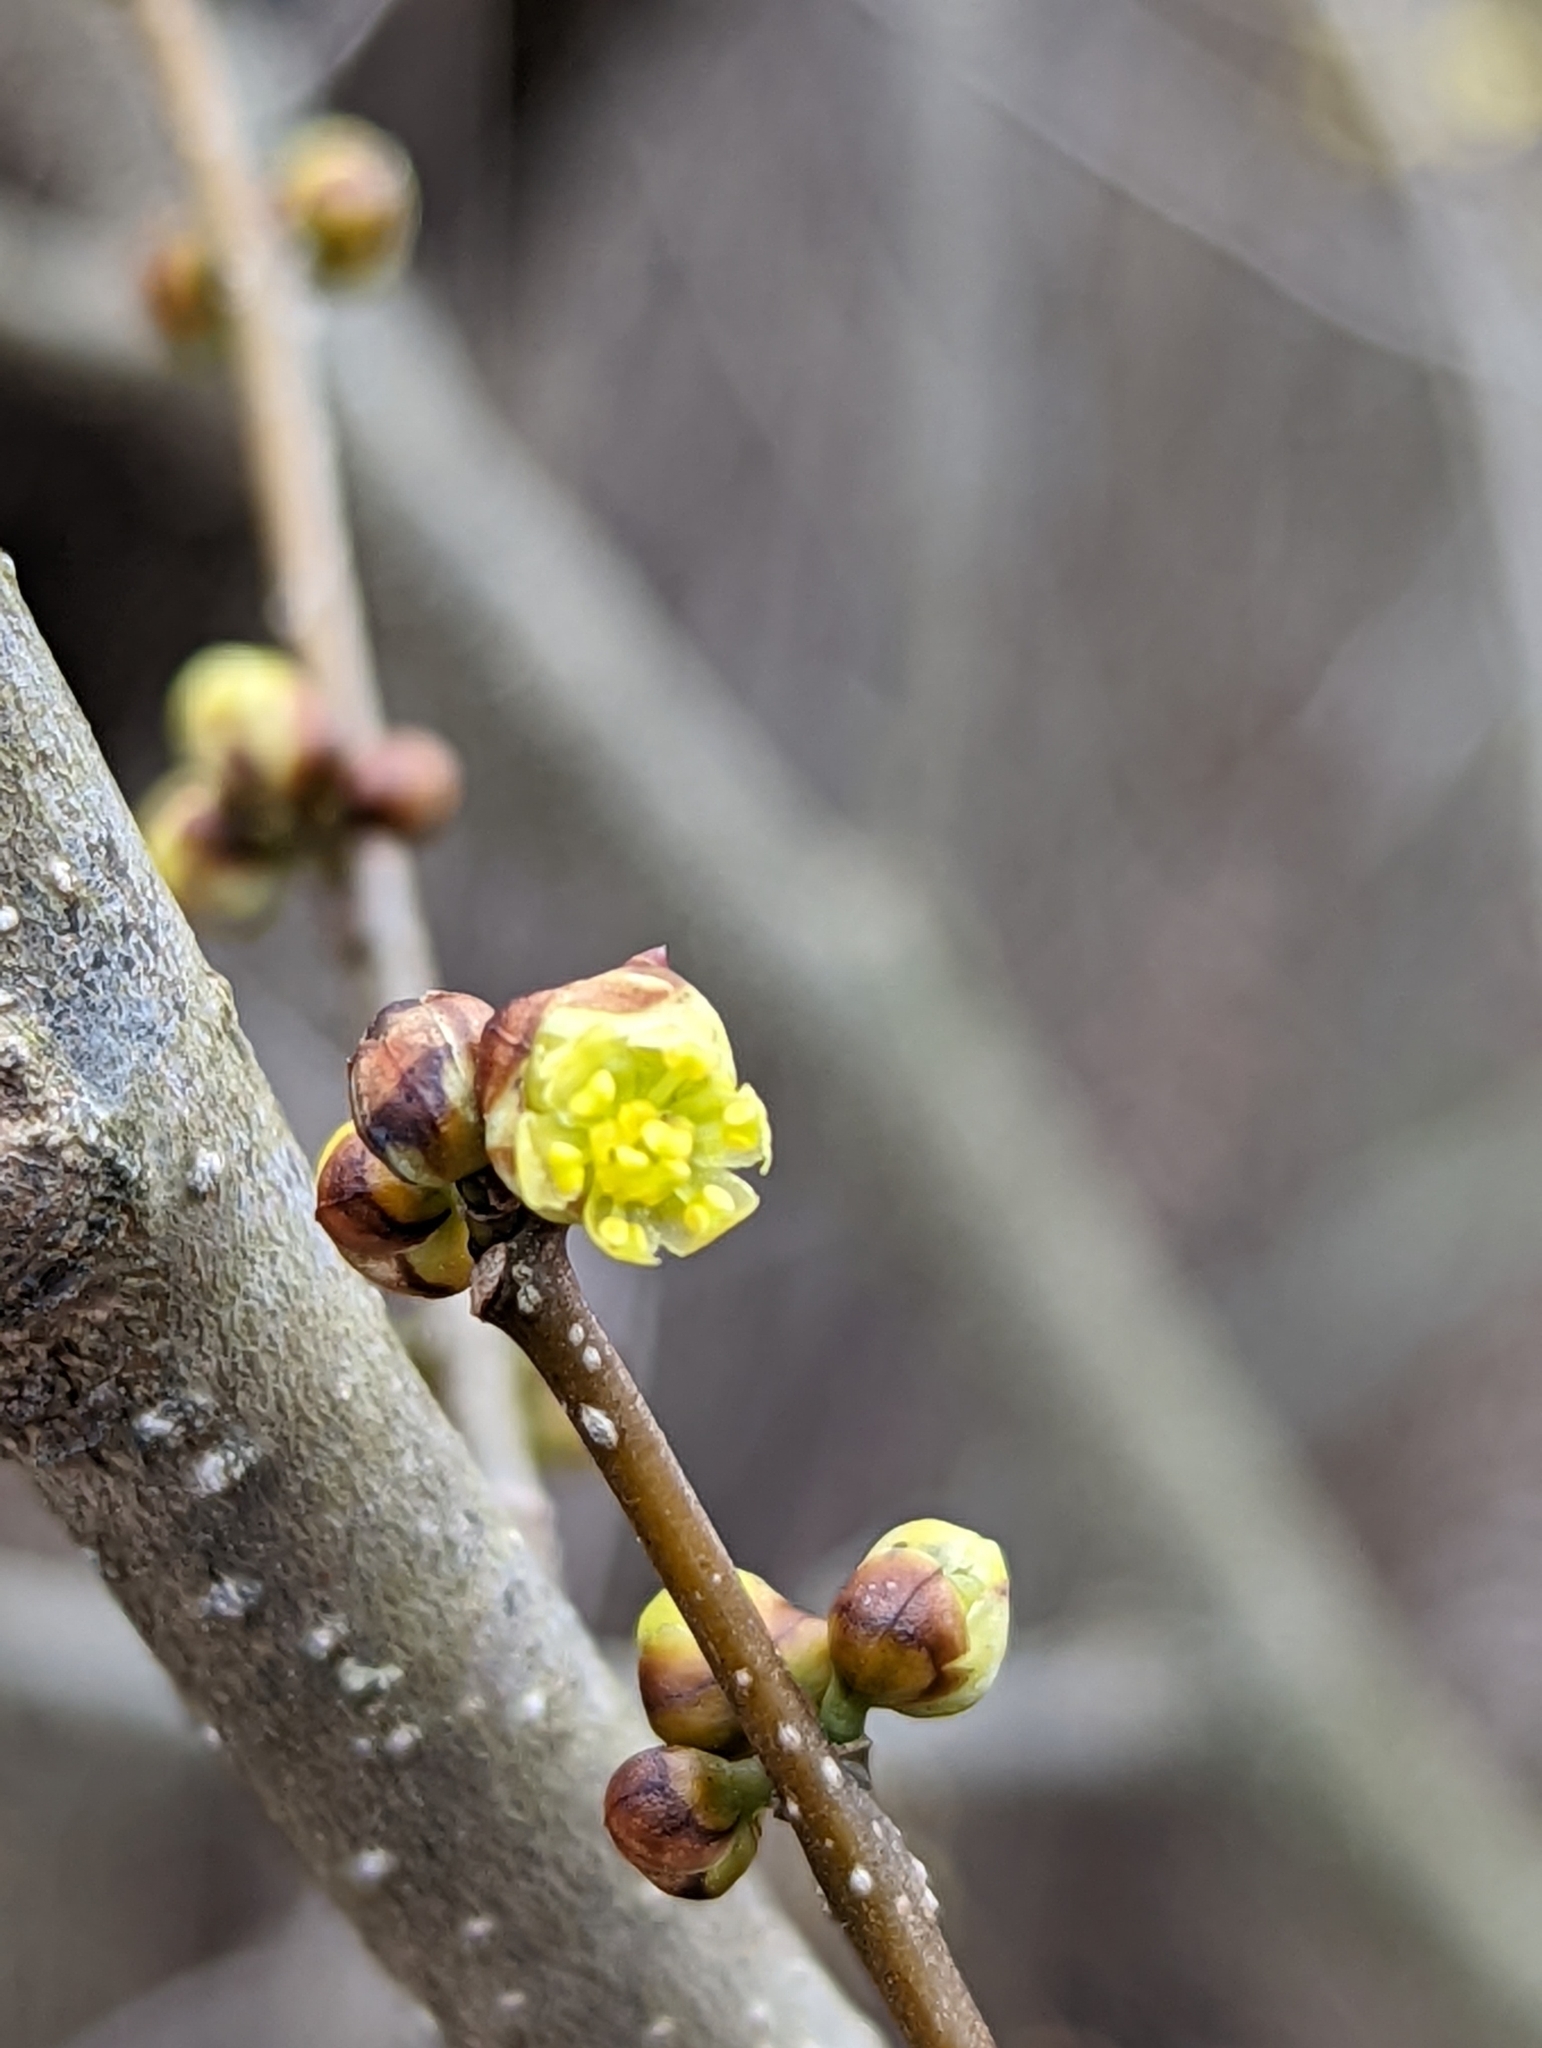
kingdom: Plantae
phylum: Tracheophyta
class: Magnoliopsida
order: Laurales
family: Lauraceae
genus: Lindera
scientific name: Lindera benzoin
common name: Spicebush
